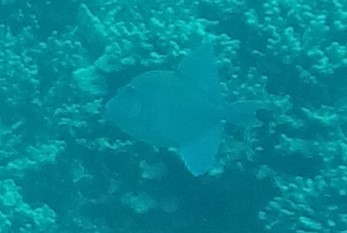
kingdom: Animalia
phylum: Chordata
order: Tetraodontiformes
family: Balistidae
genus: Balistes
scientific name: Balistes polylepis
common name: Finescale triggerfish
